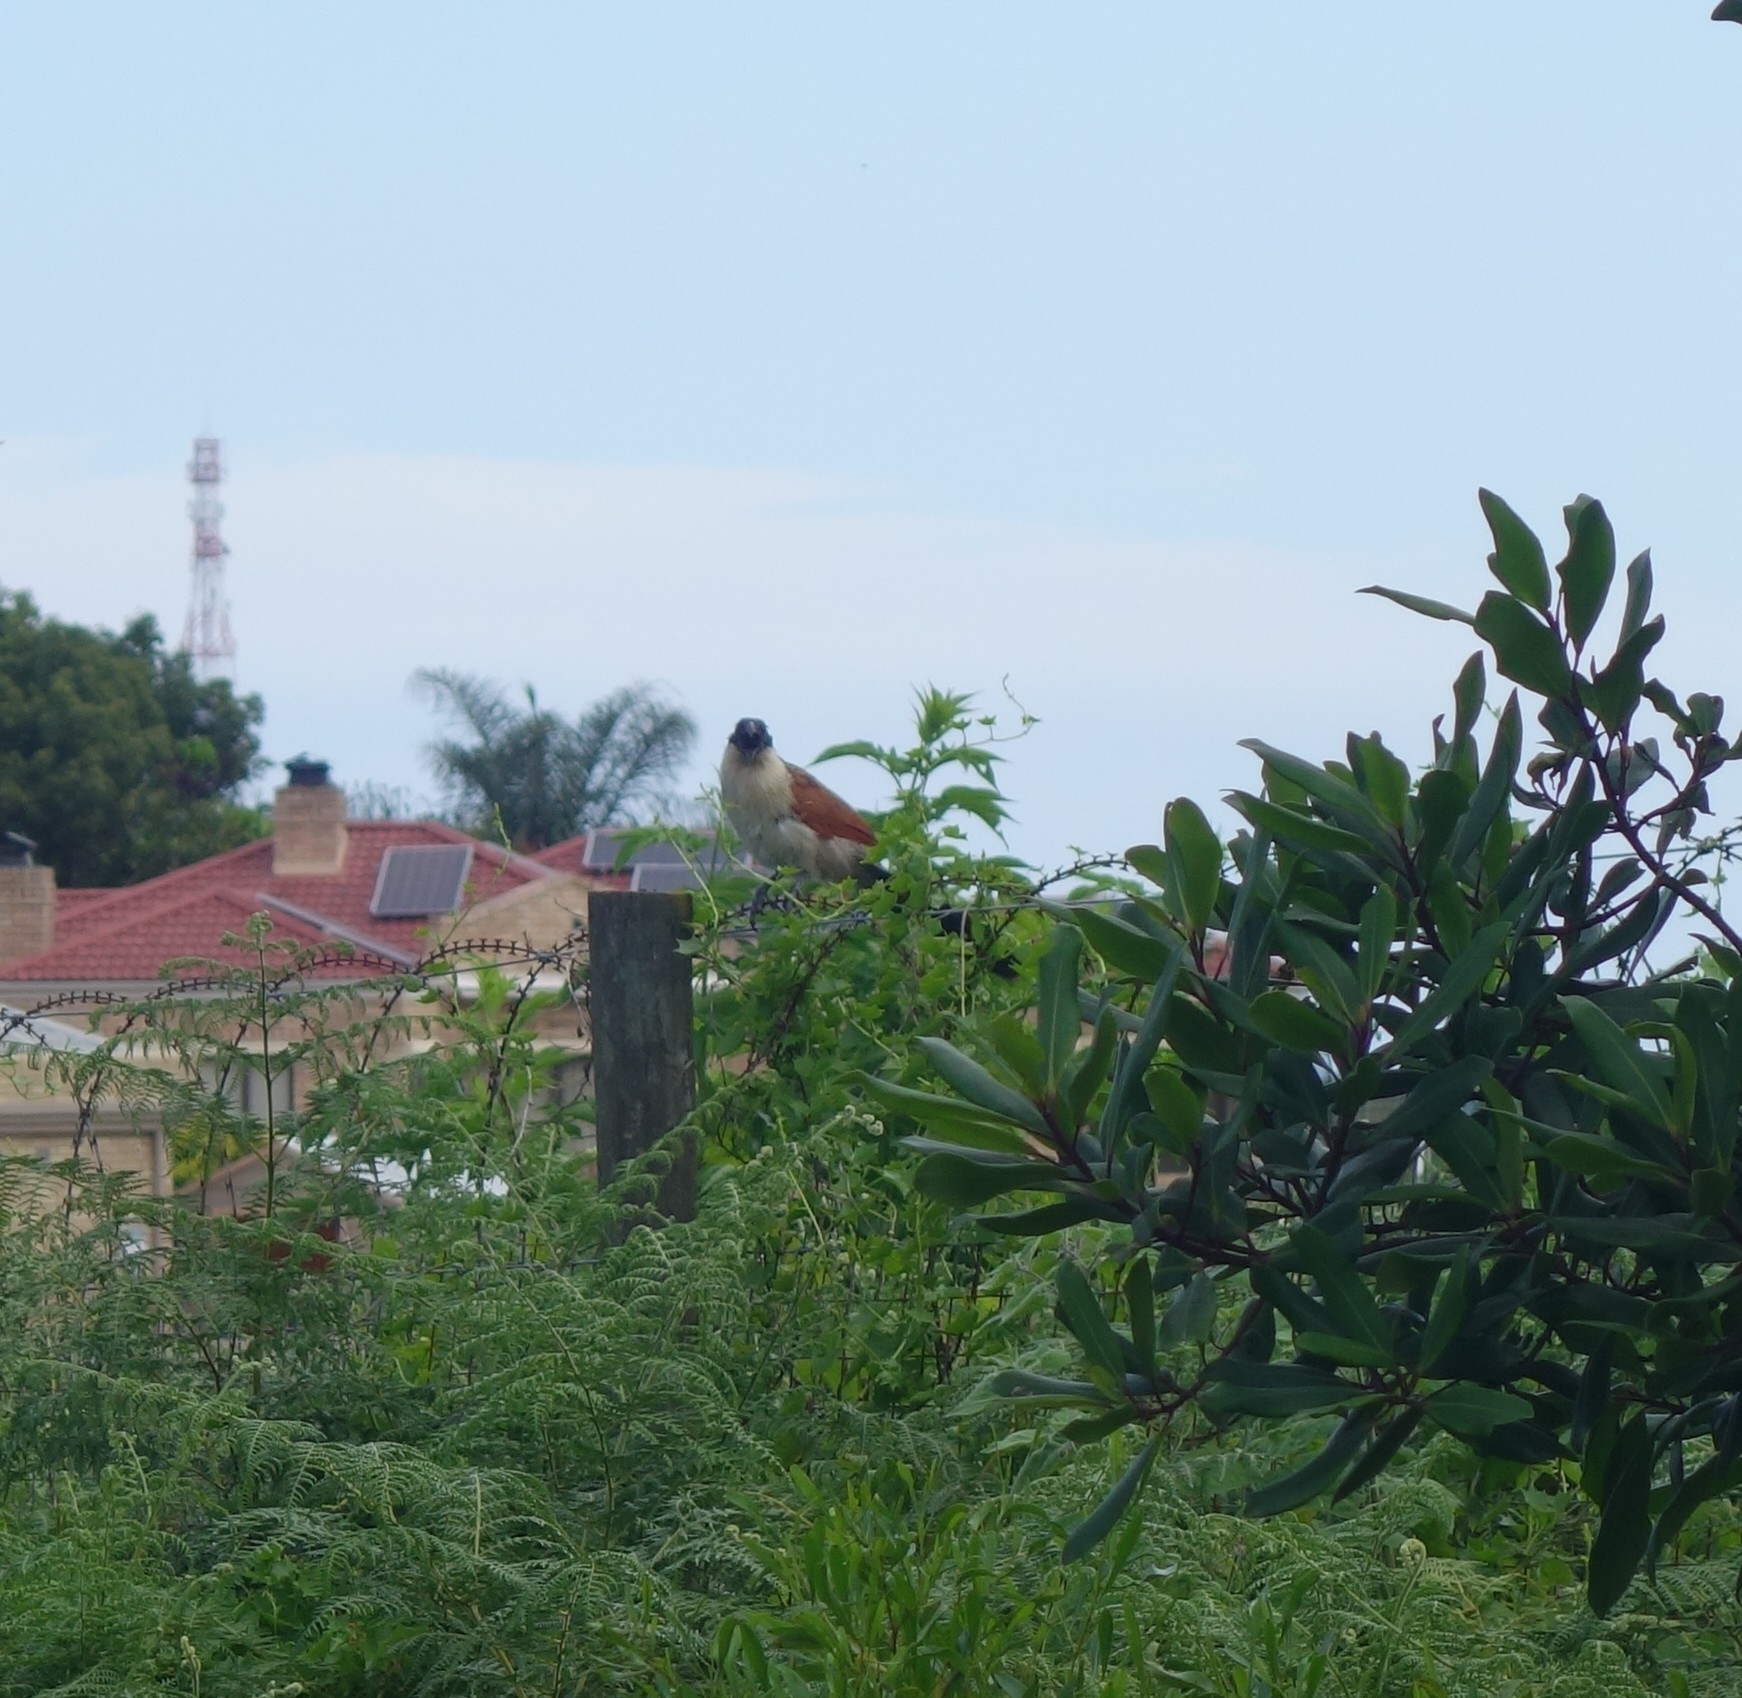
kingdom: Animalia
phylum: Chordata
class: Aves
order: Cuculiformes
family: Cuculidae
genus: Centropus
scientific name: Centropus superciliosus
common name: White-browed coucal
